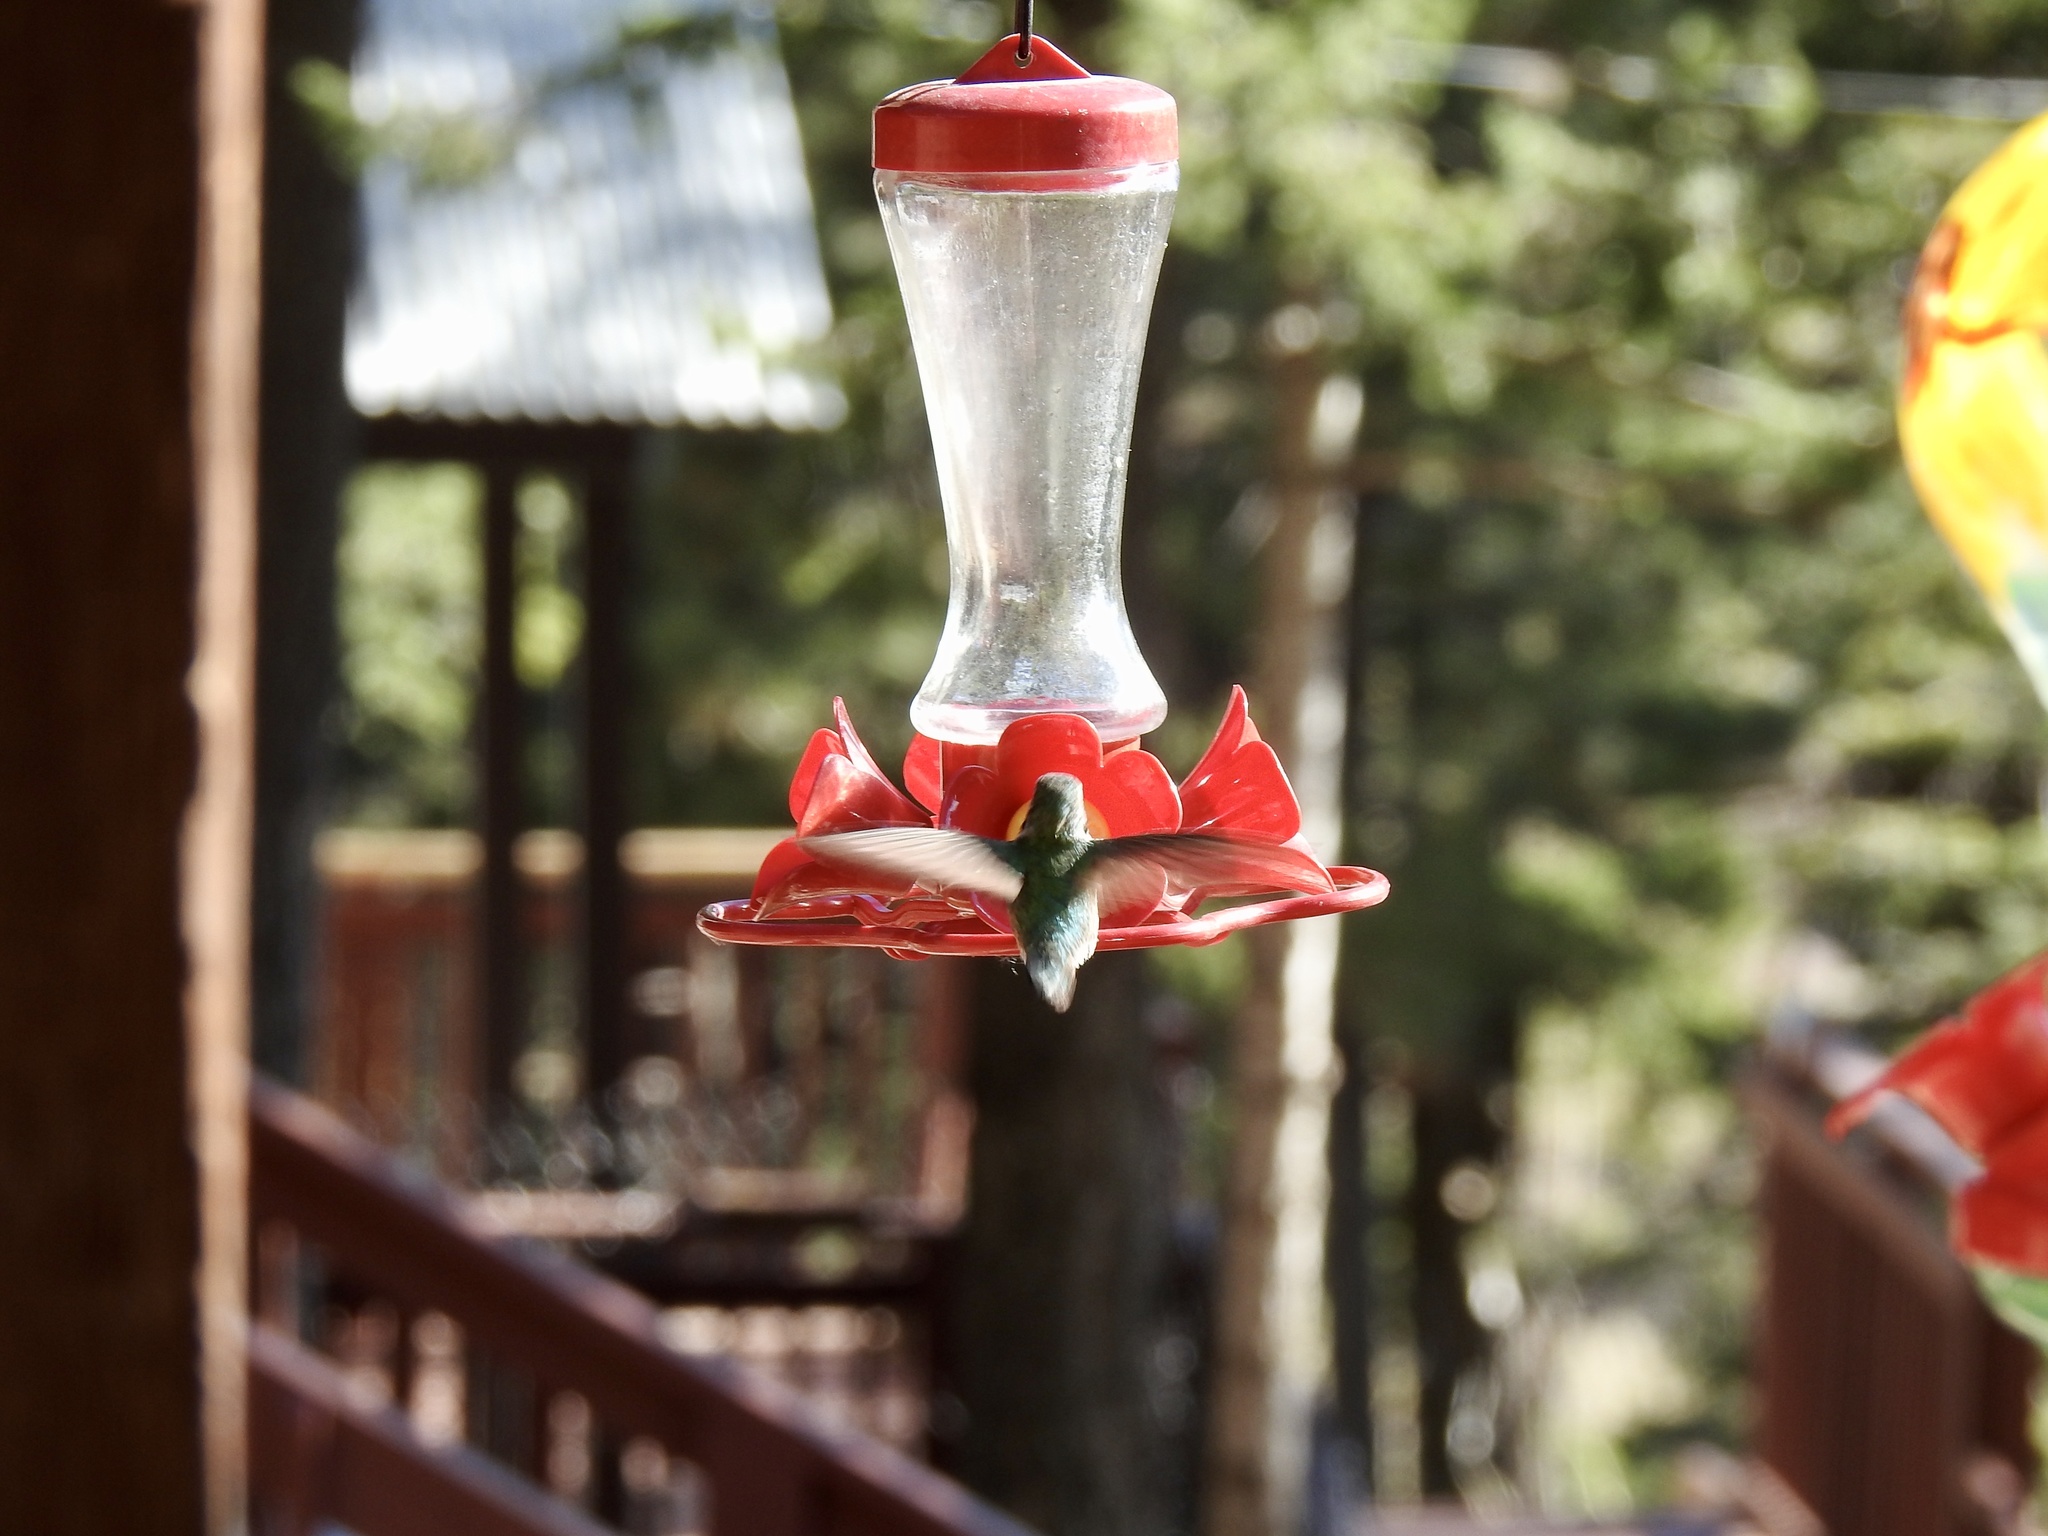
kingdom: Animalia
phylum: Chordata
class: Aves
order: Apodiformes
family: Trochilidae
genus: Selasphorus
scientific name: Selasphorus platycercus
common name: Broad-tailed hummingbird
